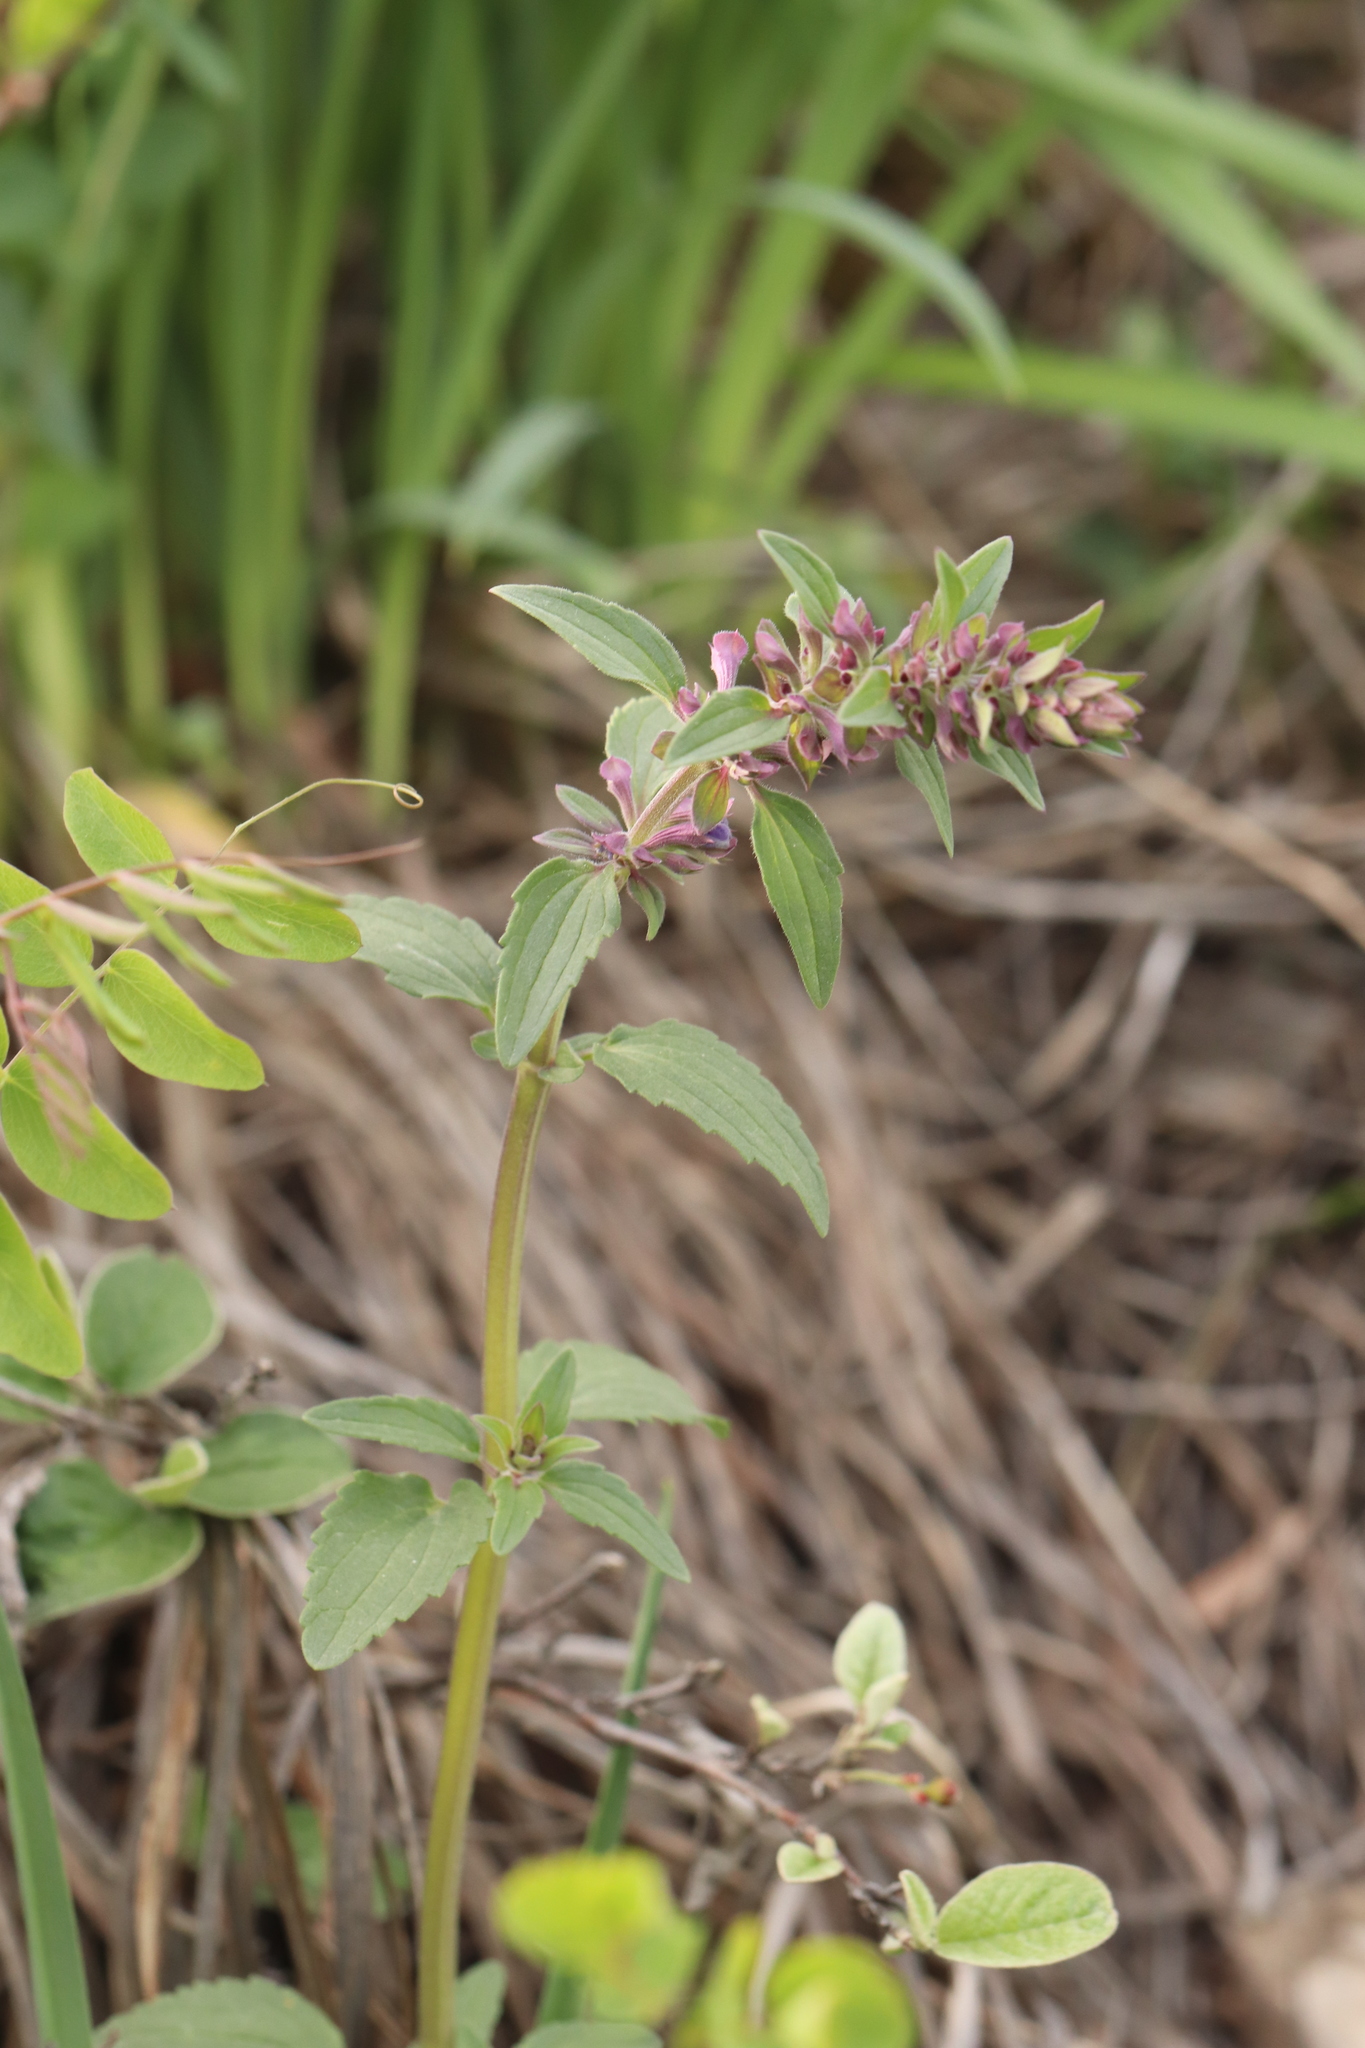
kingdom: Plantae
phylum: Tracheophyta
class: Magnoliopsida
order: Lamiales
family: Lamiaceae
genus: Dracocephalum
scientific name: Dracocephalum nutans
